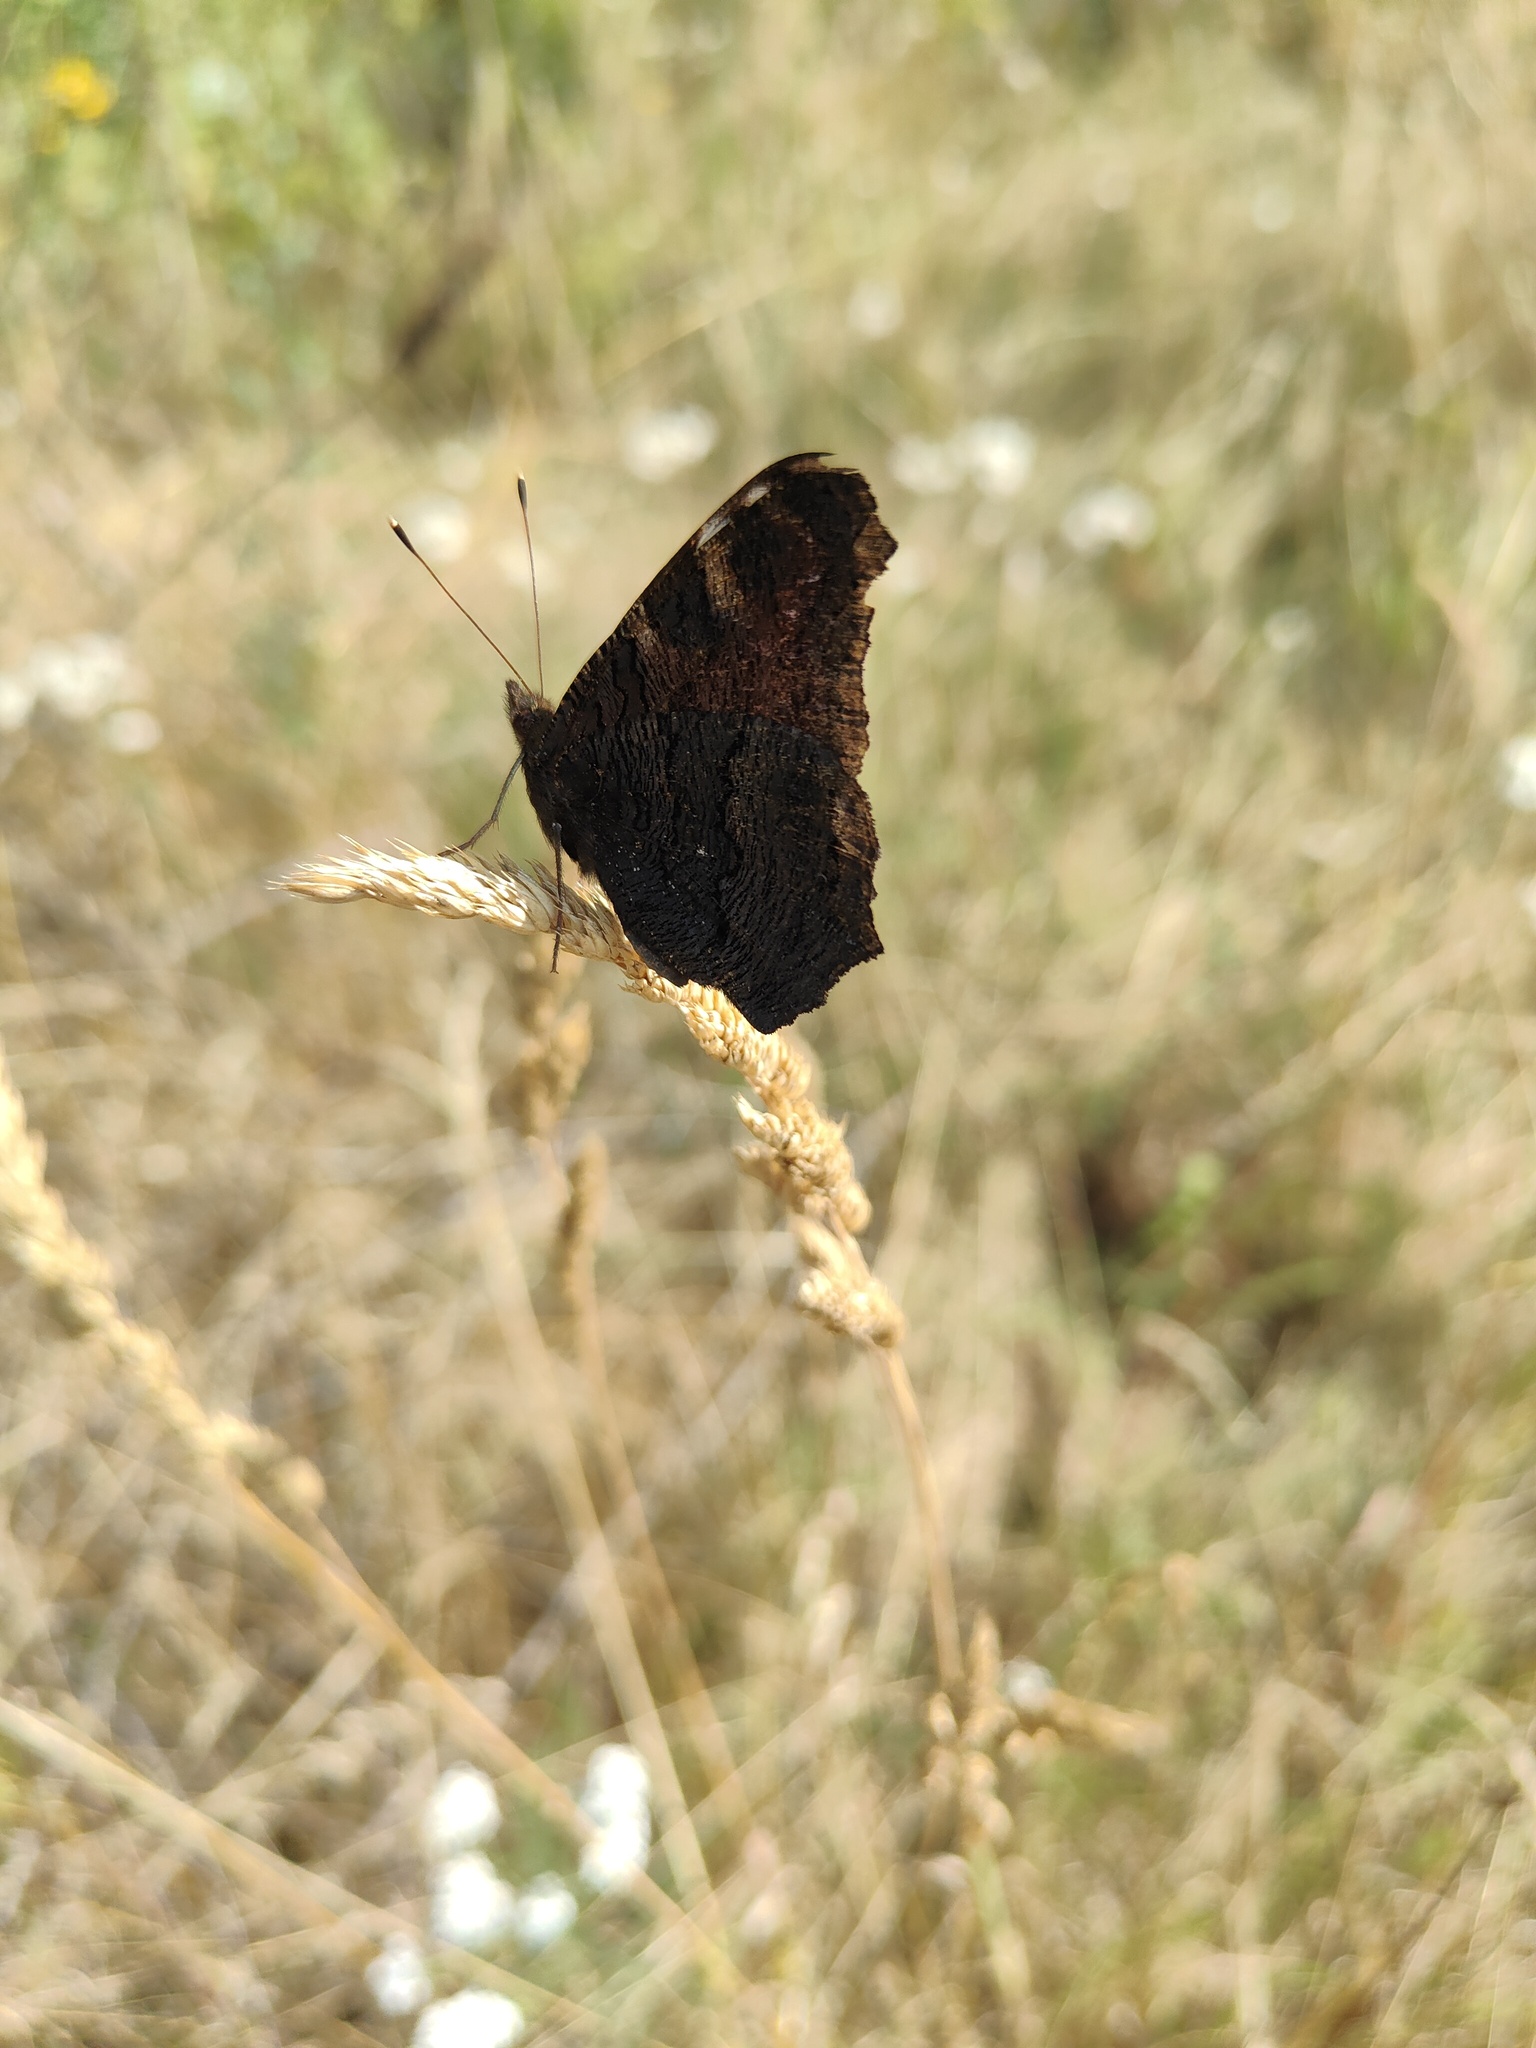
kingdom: Animalia
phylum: Arthropoda
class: Insecta
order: Lepidoptera
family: Nymphalidae
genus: Aglais
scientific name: Aglais io
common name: Peacock
